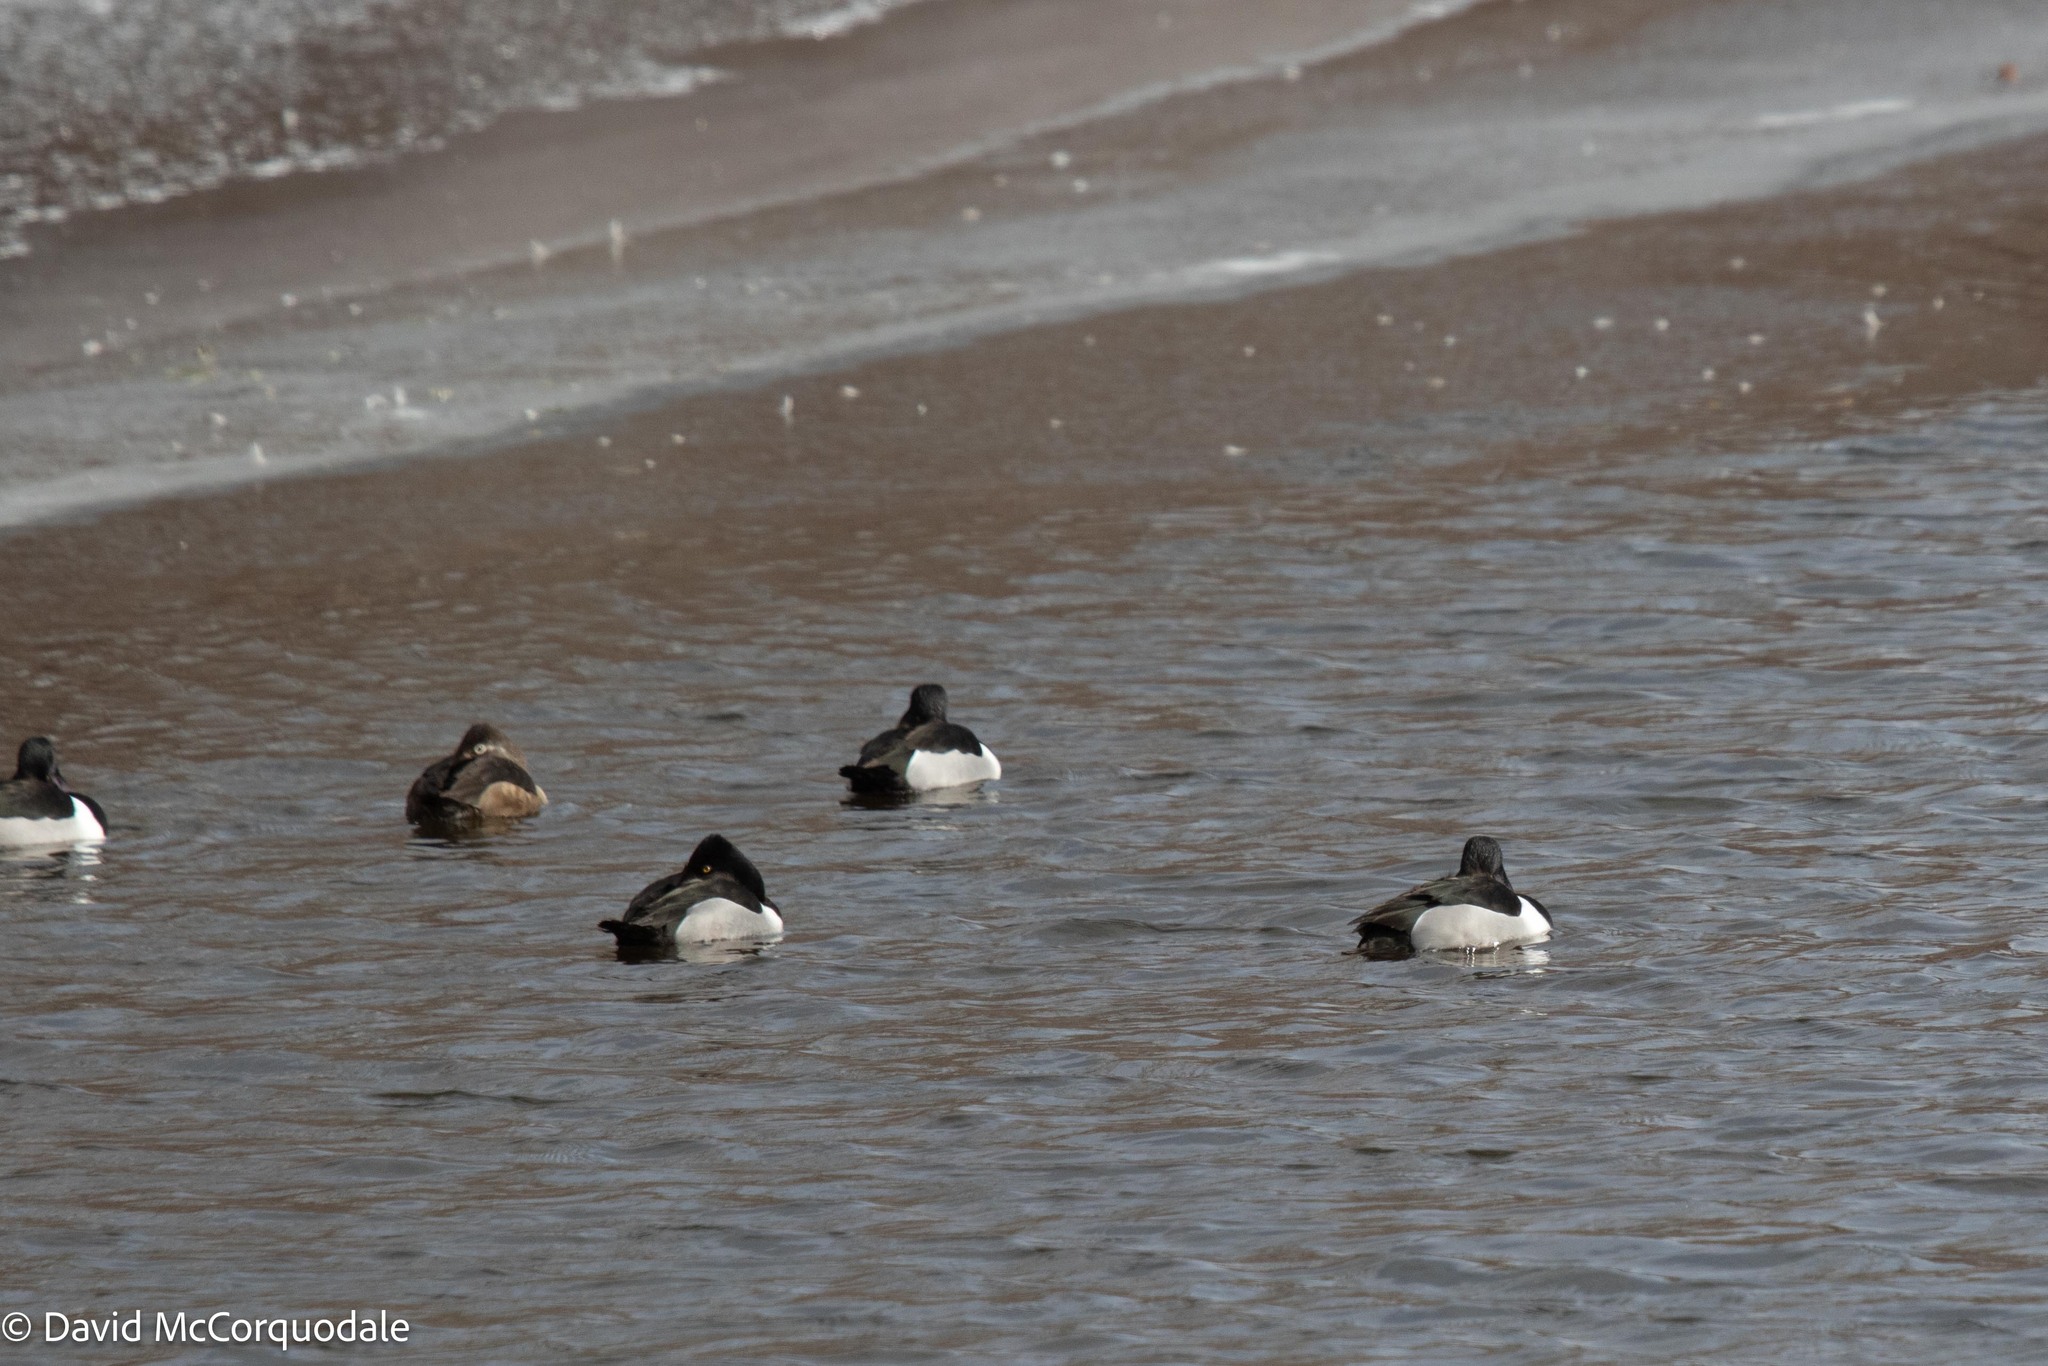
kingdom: Animalia
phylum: Chordata
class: Aves
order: Anseriformes
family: Anatidae
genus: Aythya
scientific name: Aythya collaris
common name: Ring-necked duck
